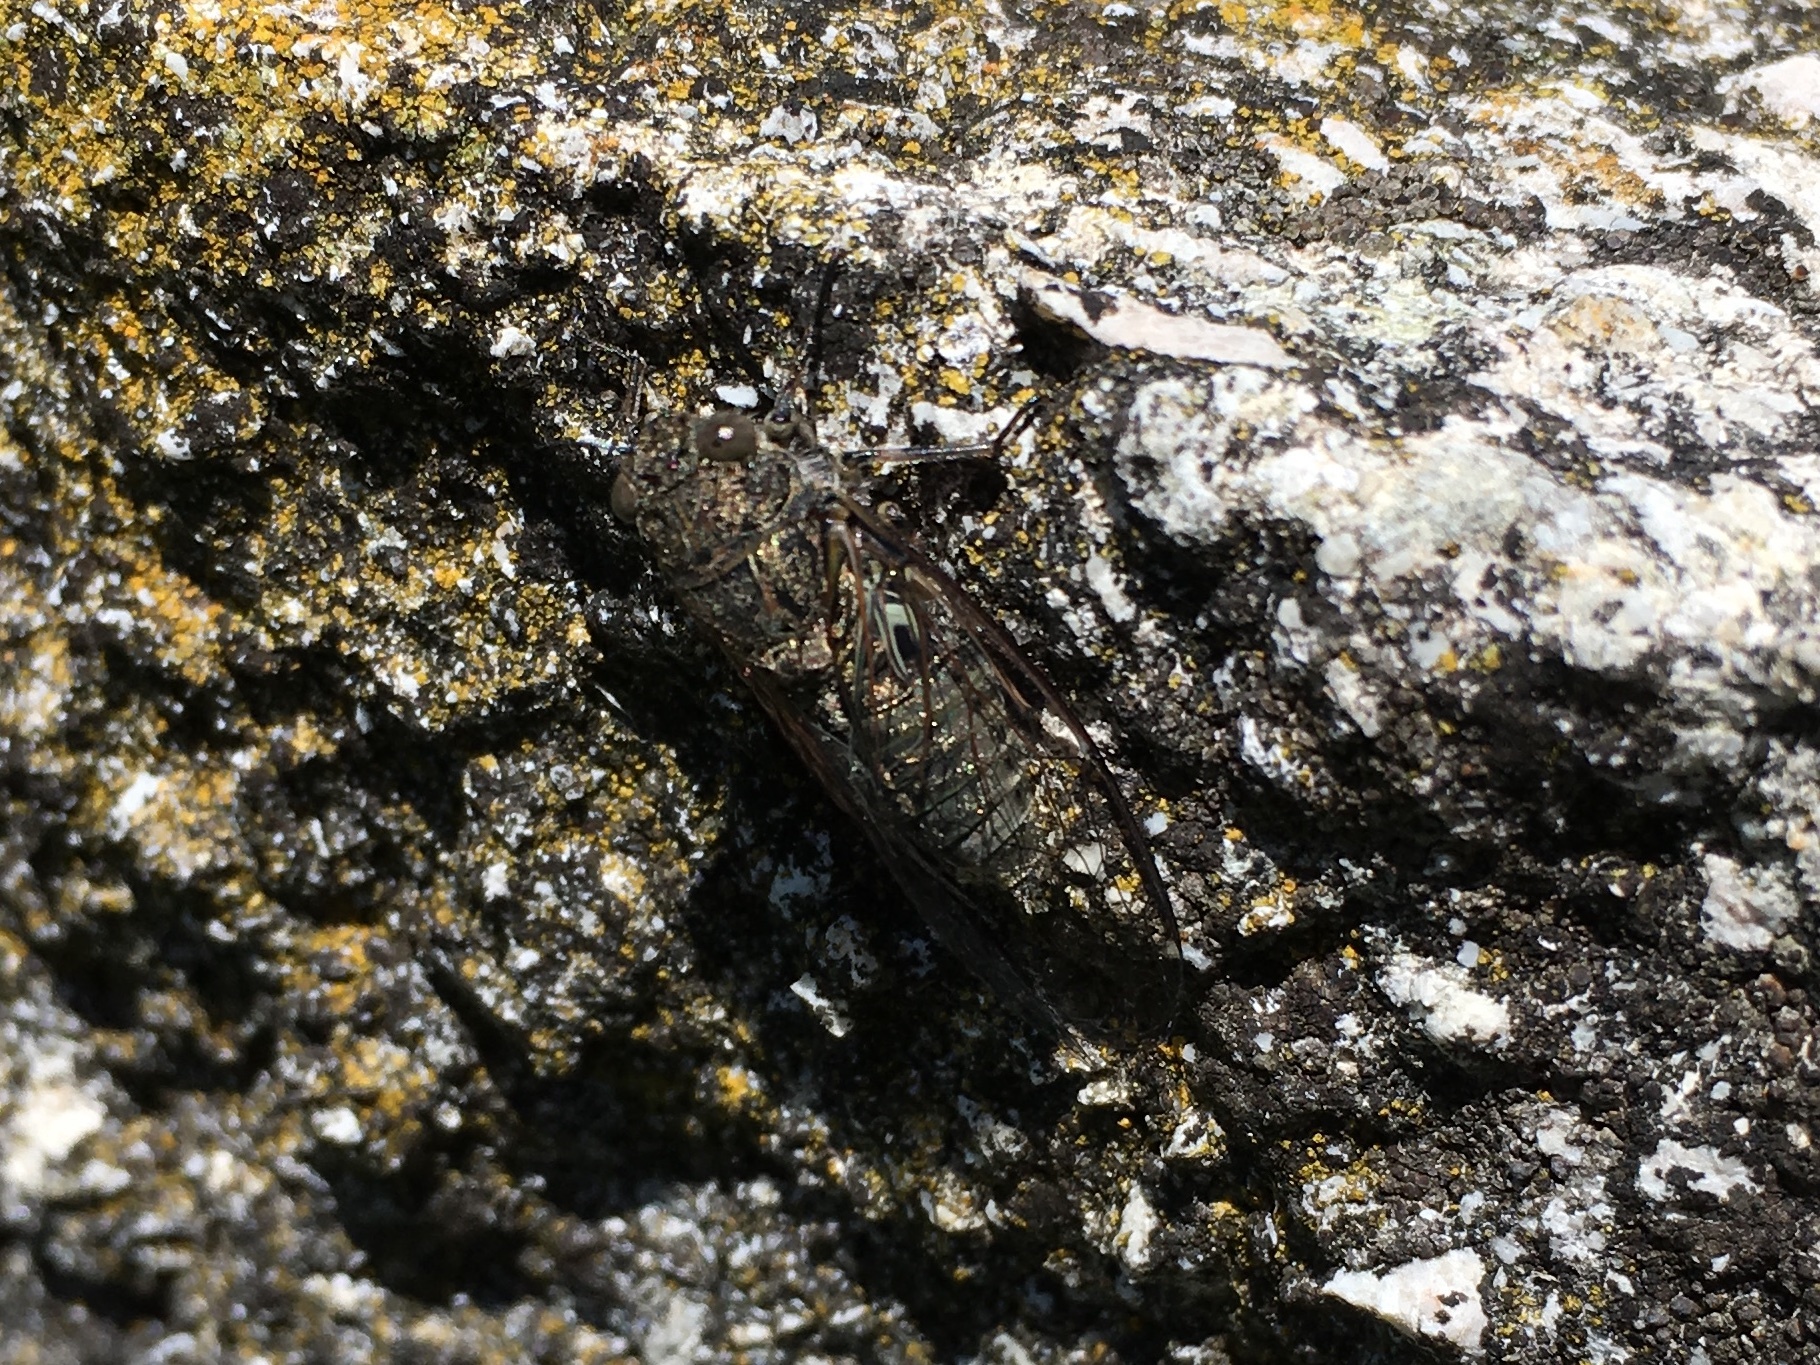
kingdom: Animalia
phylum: Arthropoda
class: Insecta
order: Hemiptera
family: Cicadidae
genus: Notopsalta
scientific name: Notopsalta sericea
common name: Clay bank cicada
